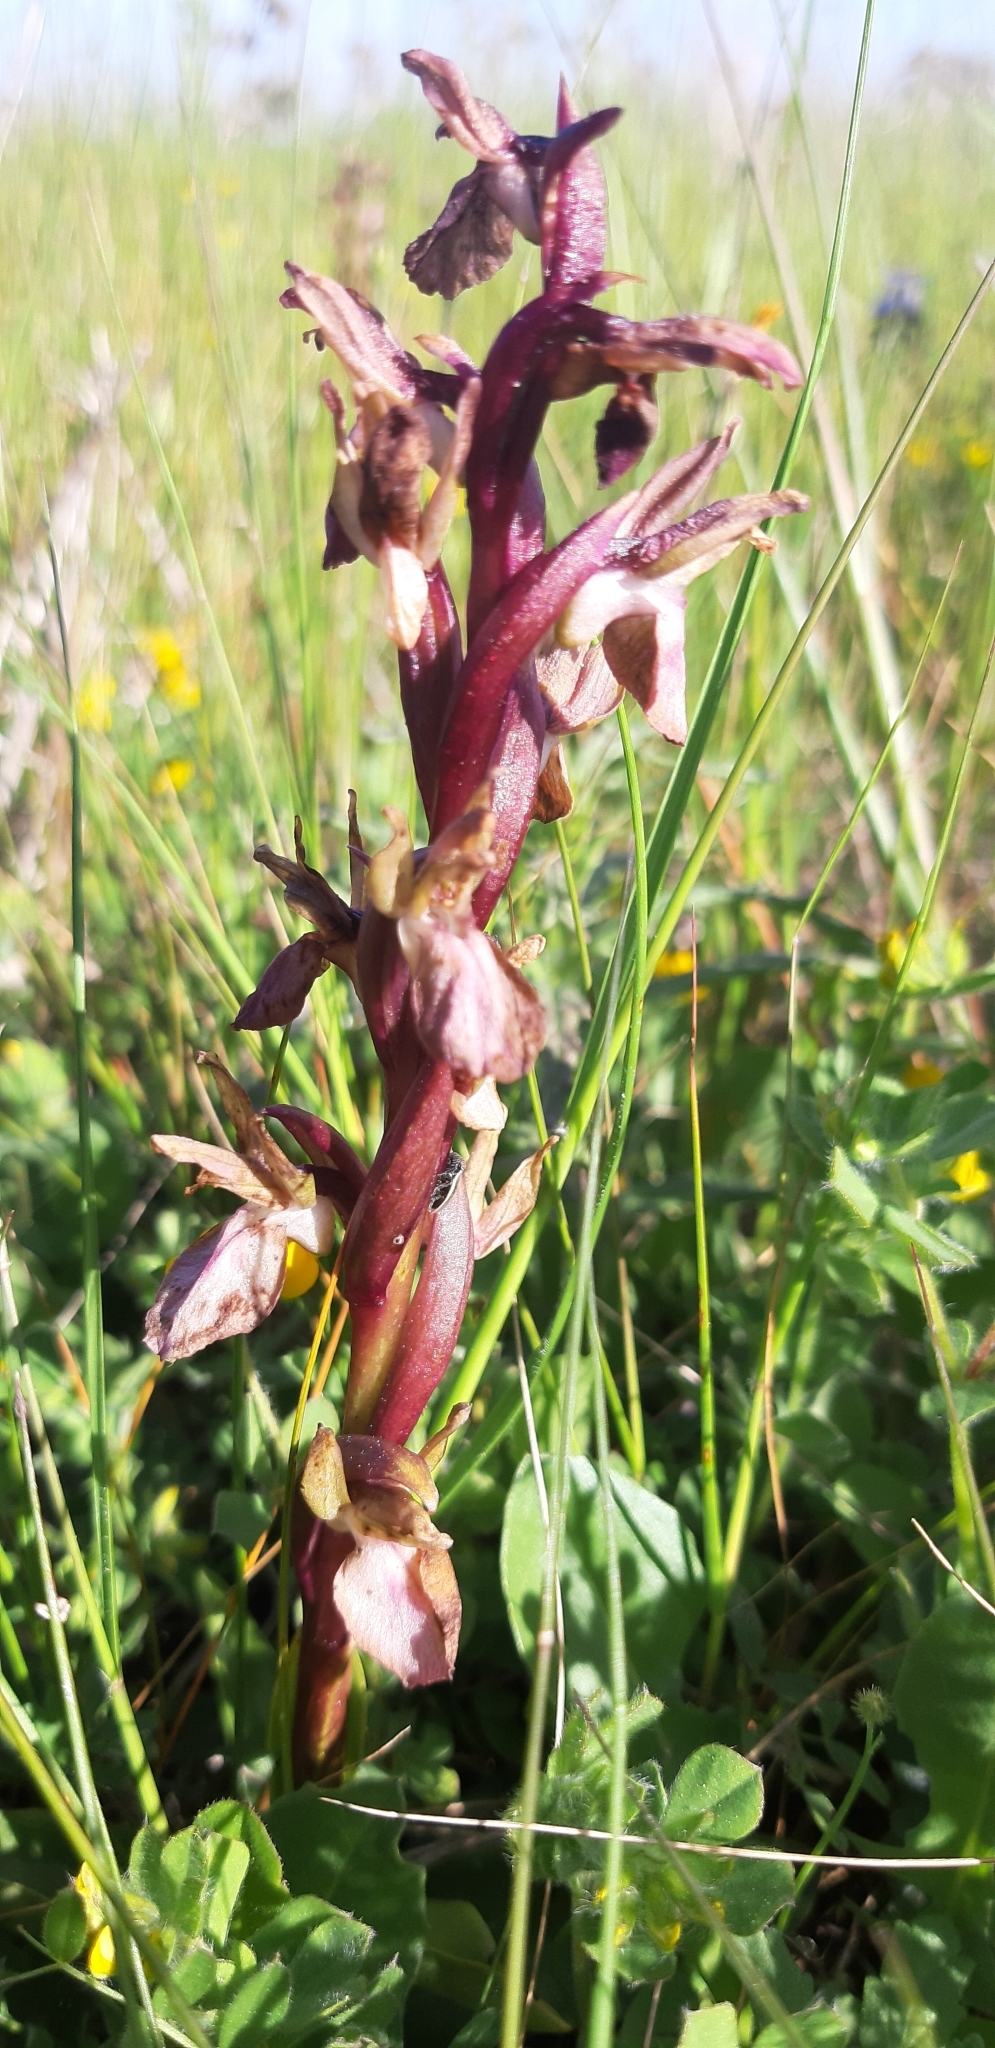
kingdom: Plantae
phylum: Tracheophyta
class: Liliopsida
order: Asparagales
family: Orchidaceae
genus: Anacamptis
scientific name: Anacamptis collina
